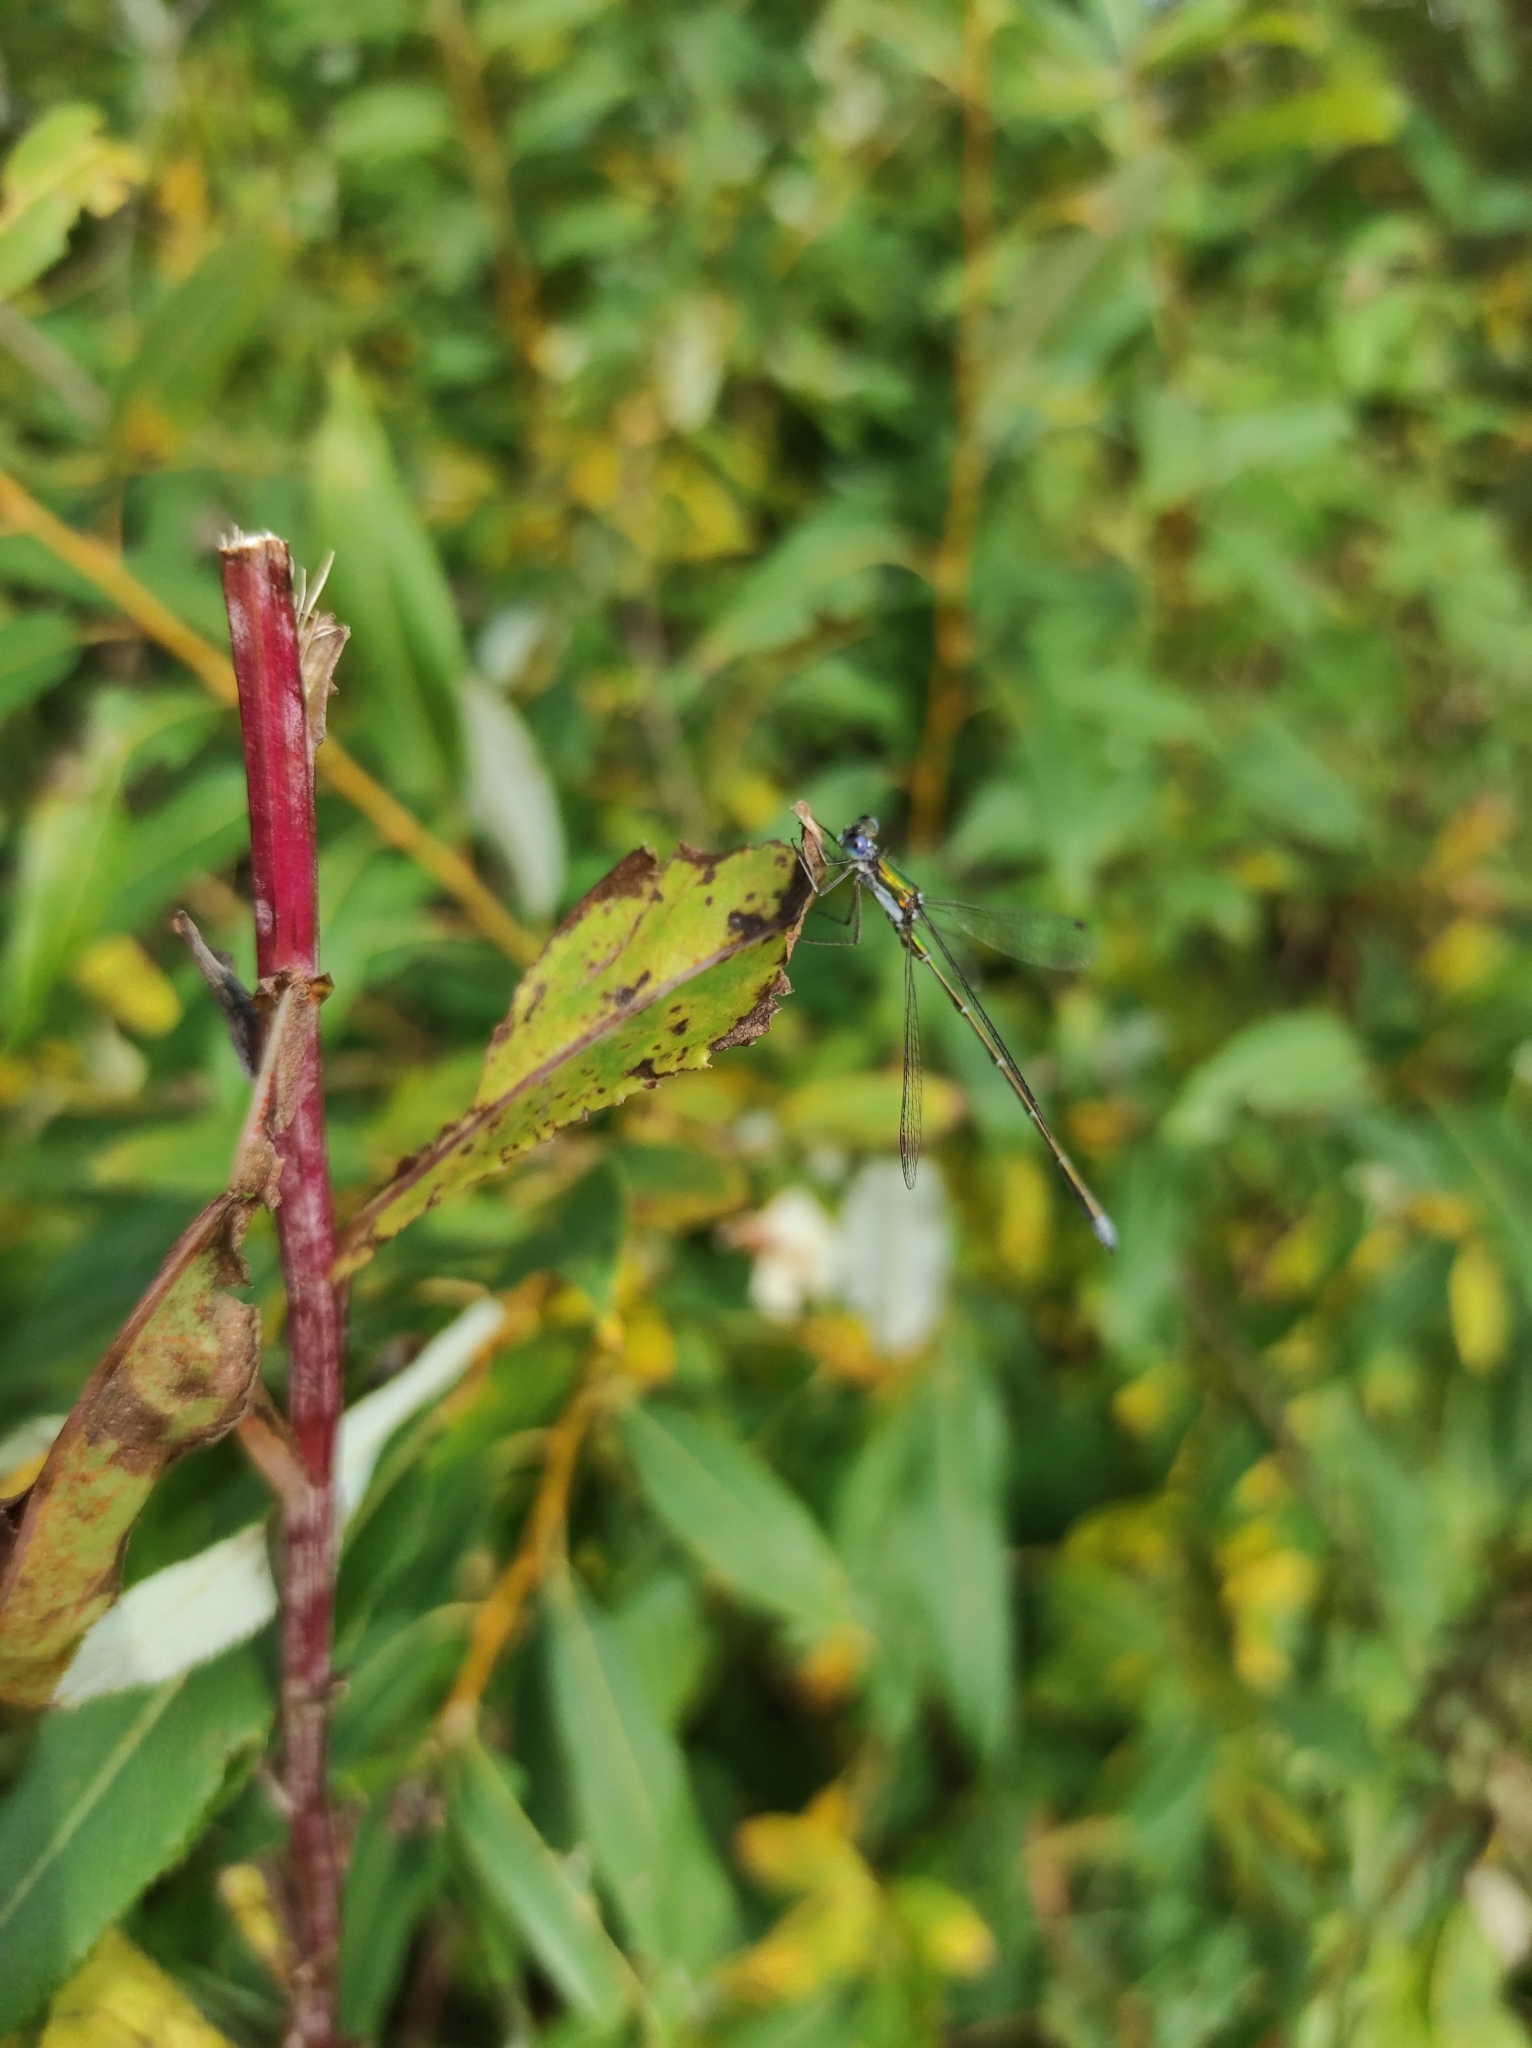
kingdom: Animalia
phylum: Arthropoda
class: Insecta
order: Odonata
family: Lestidae
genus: Lestes
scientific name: Lestes virens
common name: Small emerald spreadwing
